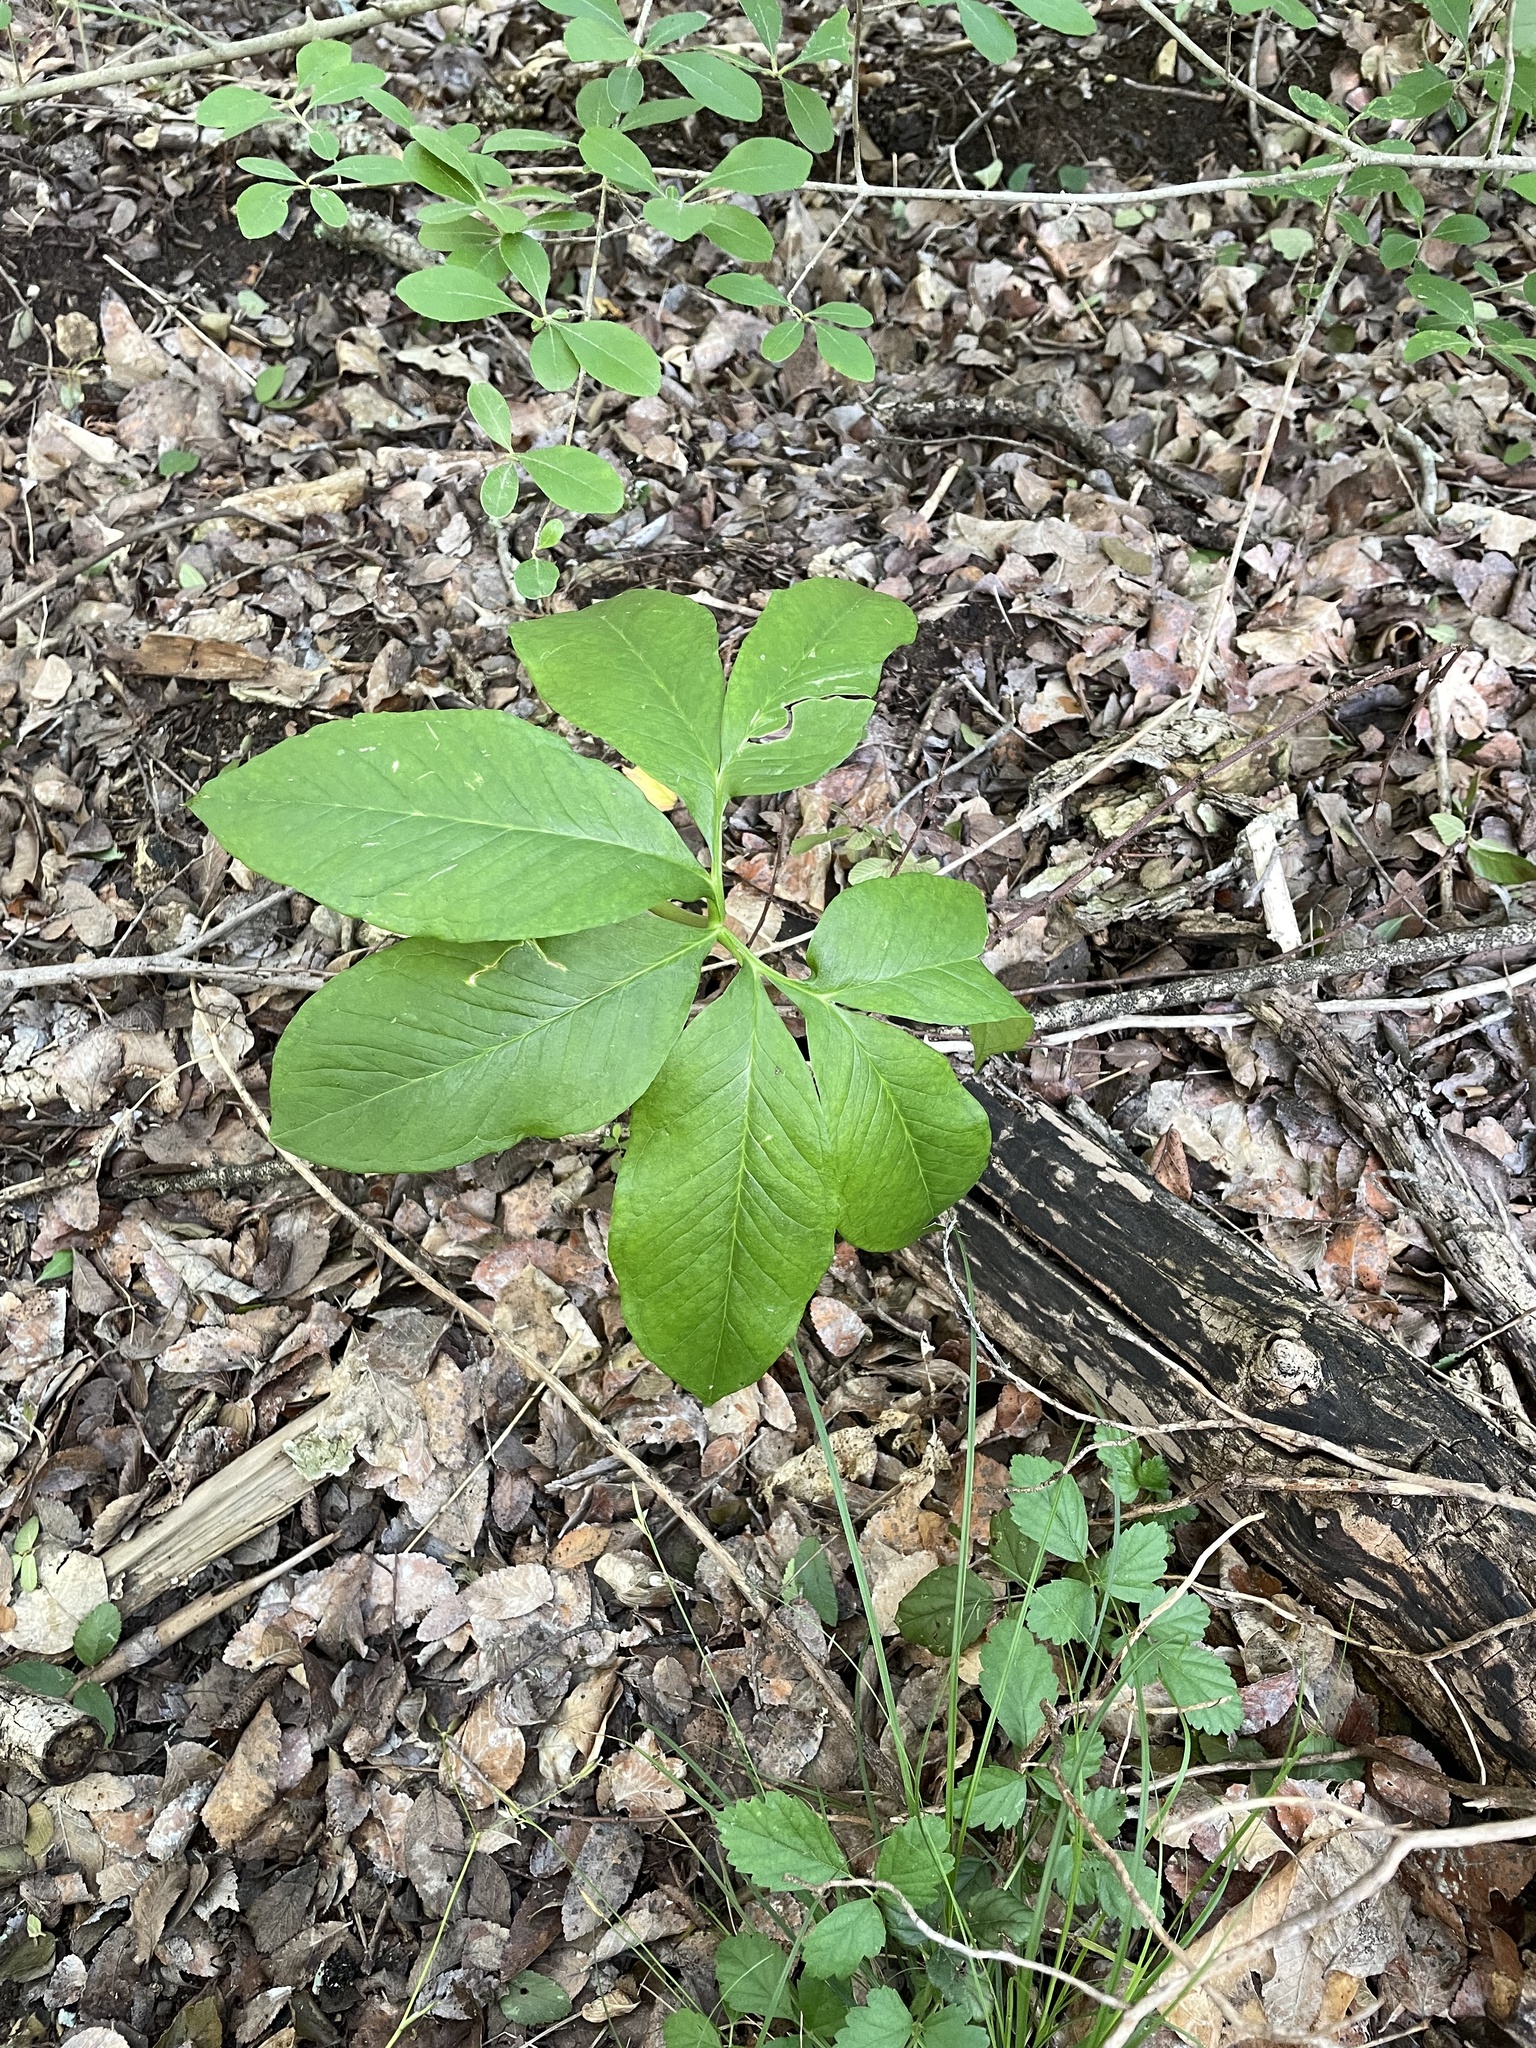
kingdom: Plantae
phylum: Tracheophyta
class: Liliopsida
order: Alismatales
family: Araceae
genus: Arisaema
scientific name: Arisaema dracontium
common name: Dragon-arum
